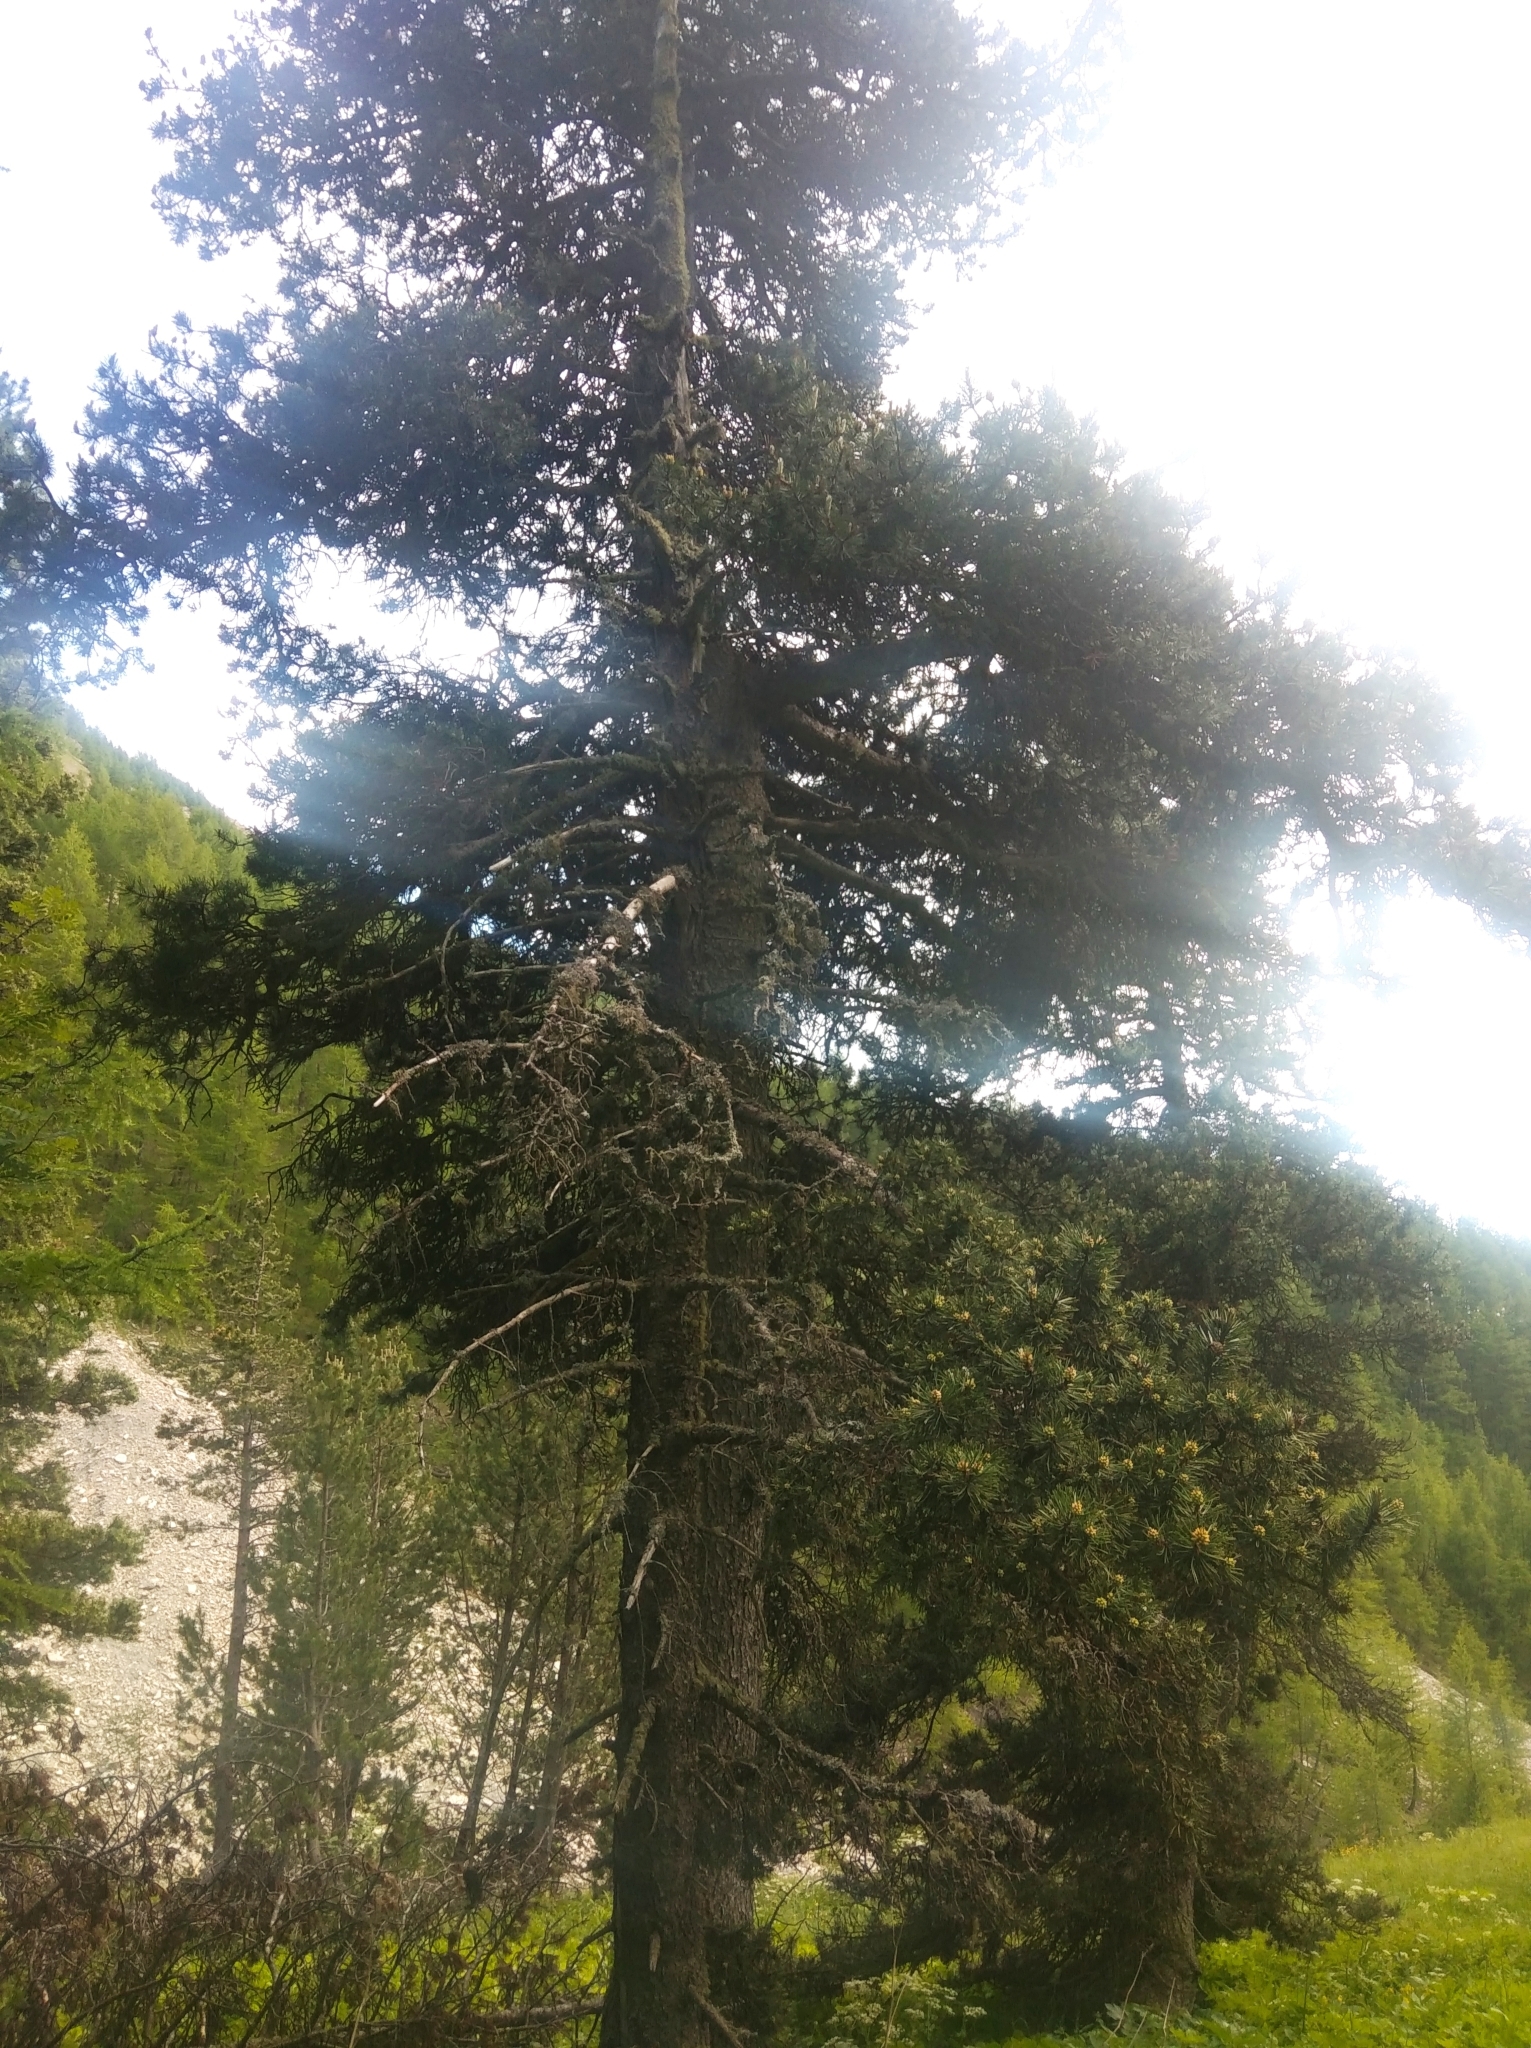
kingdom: Plantae
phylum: Tracheophyta
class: Pinopsida
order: Pinales
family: Pinaceae
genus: Pinus
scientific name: Pinus sylvestris
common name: Scots pine
